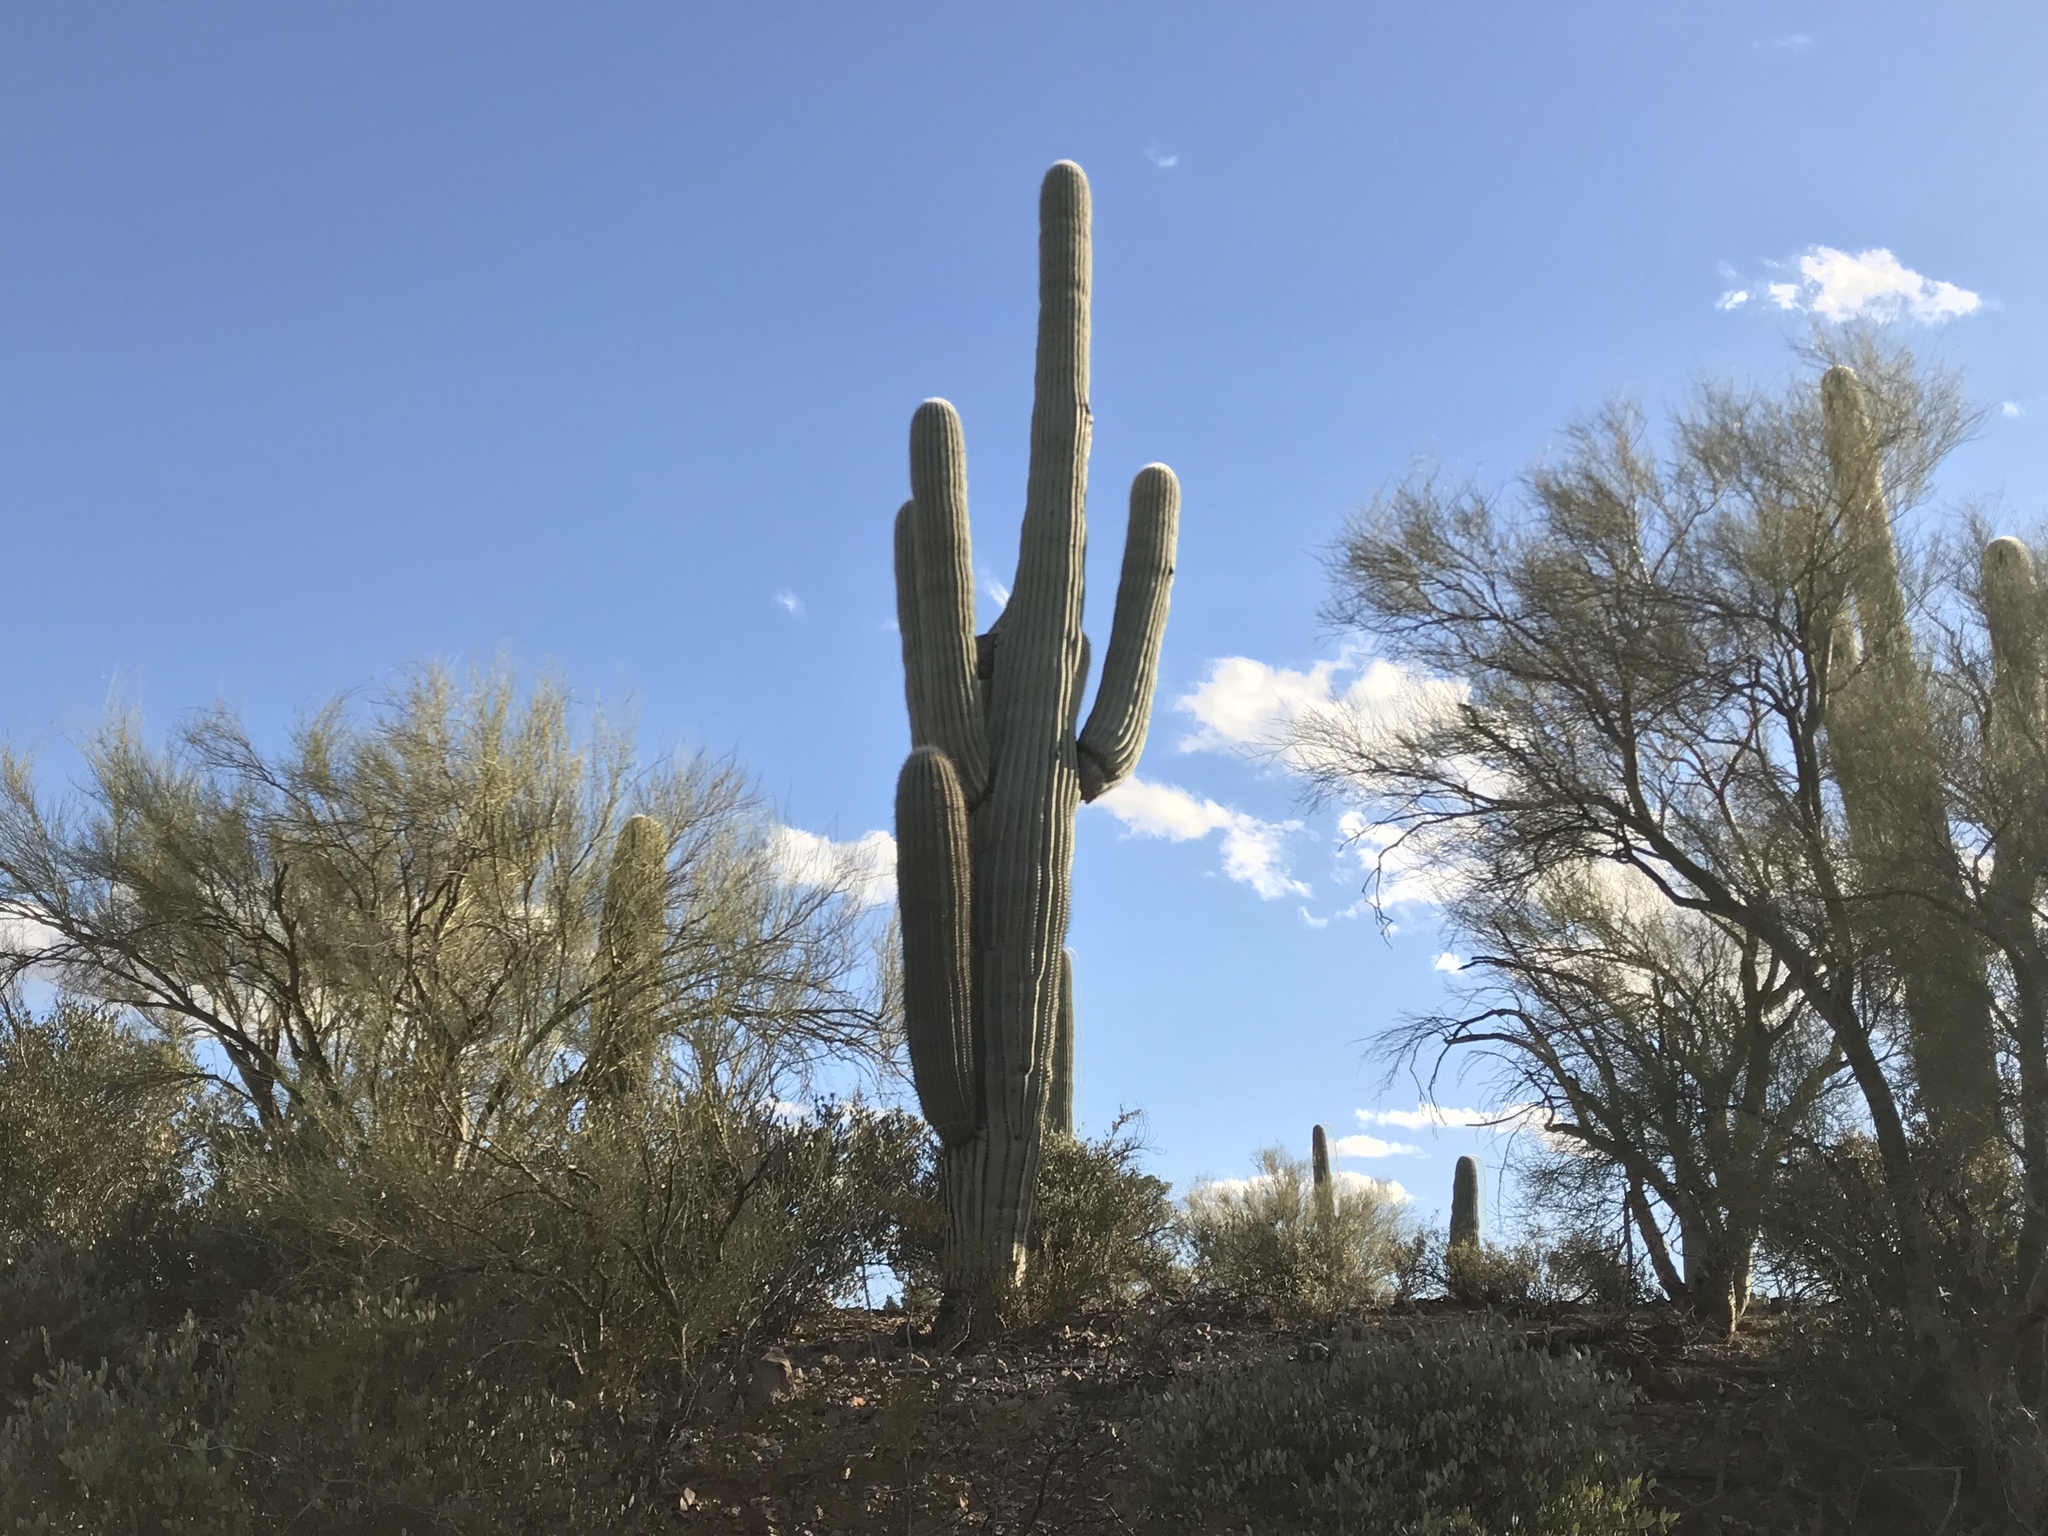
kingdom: Plantae
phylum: Tracheophyta
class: Magnoliopsida
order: Caryophyllales
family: Cactaceae
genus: Carnegiea
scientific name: Carnegiea gigantea
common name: Saguaro
